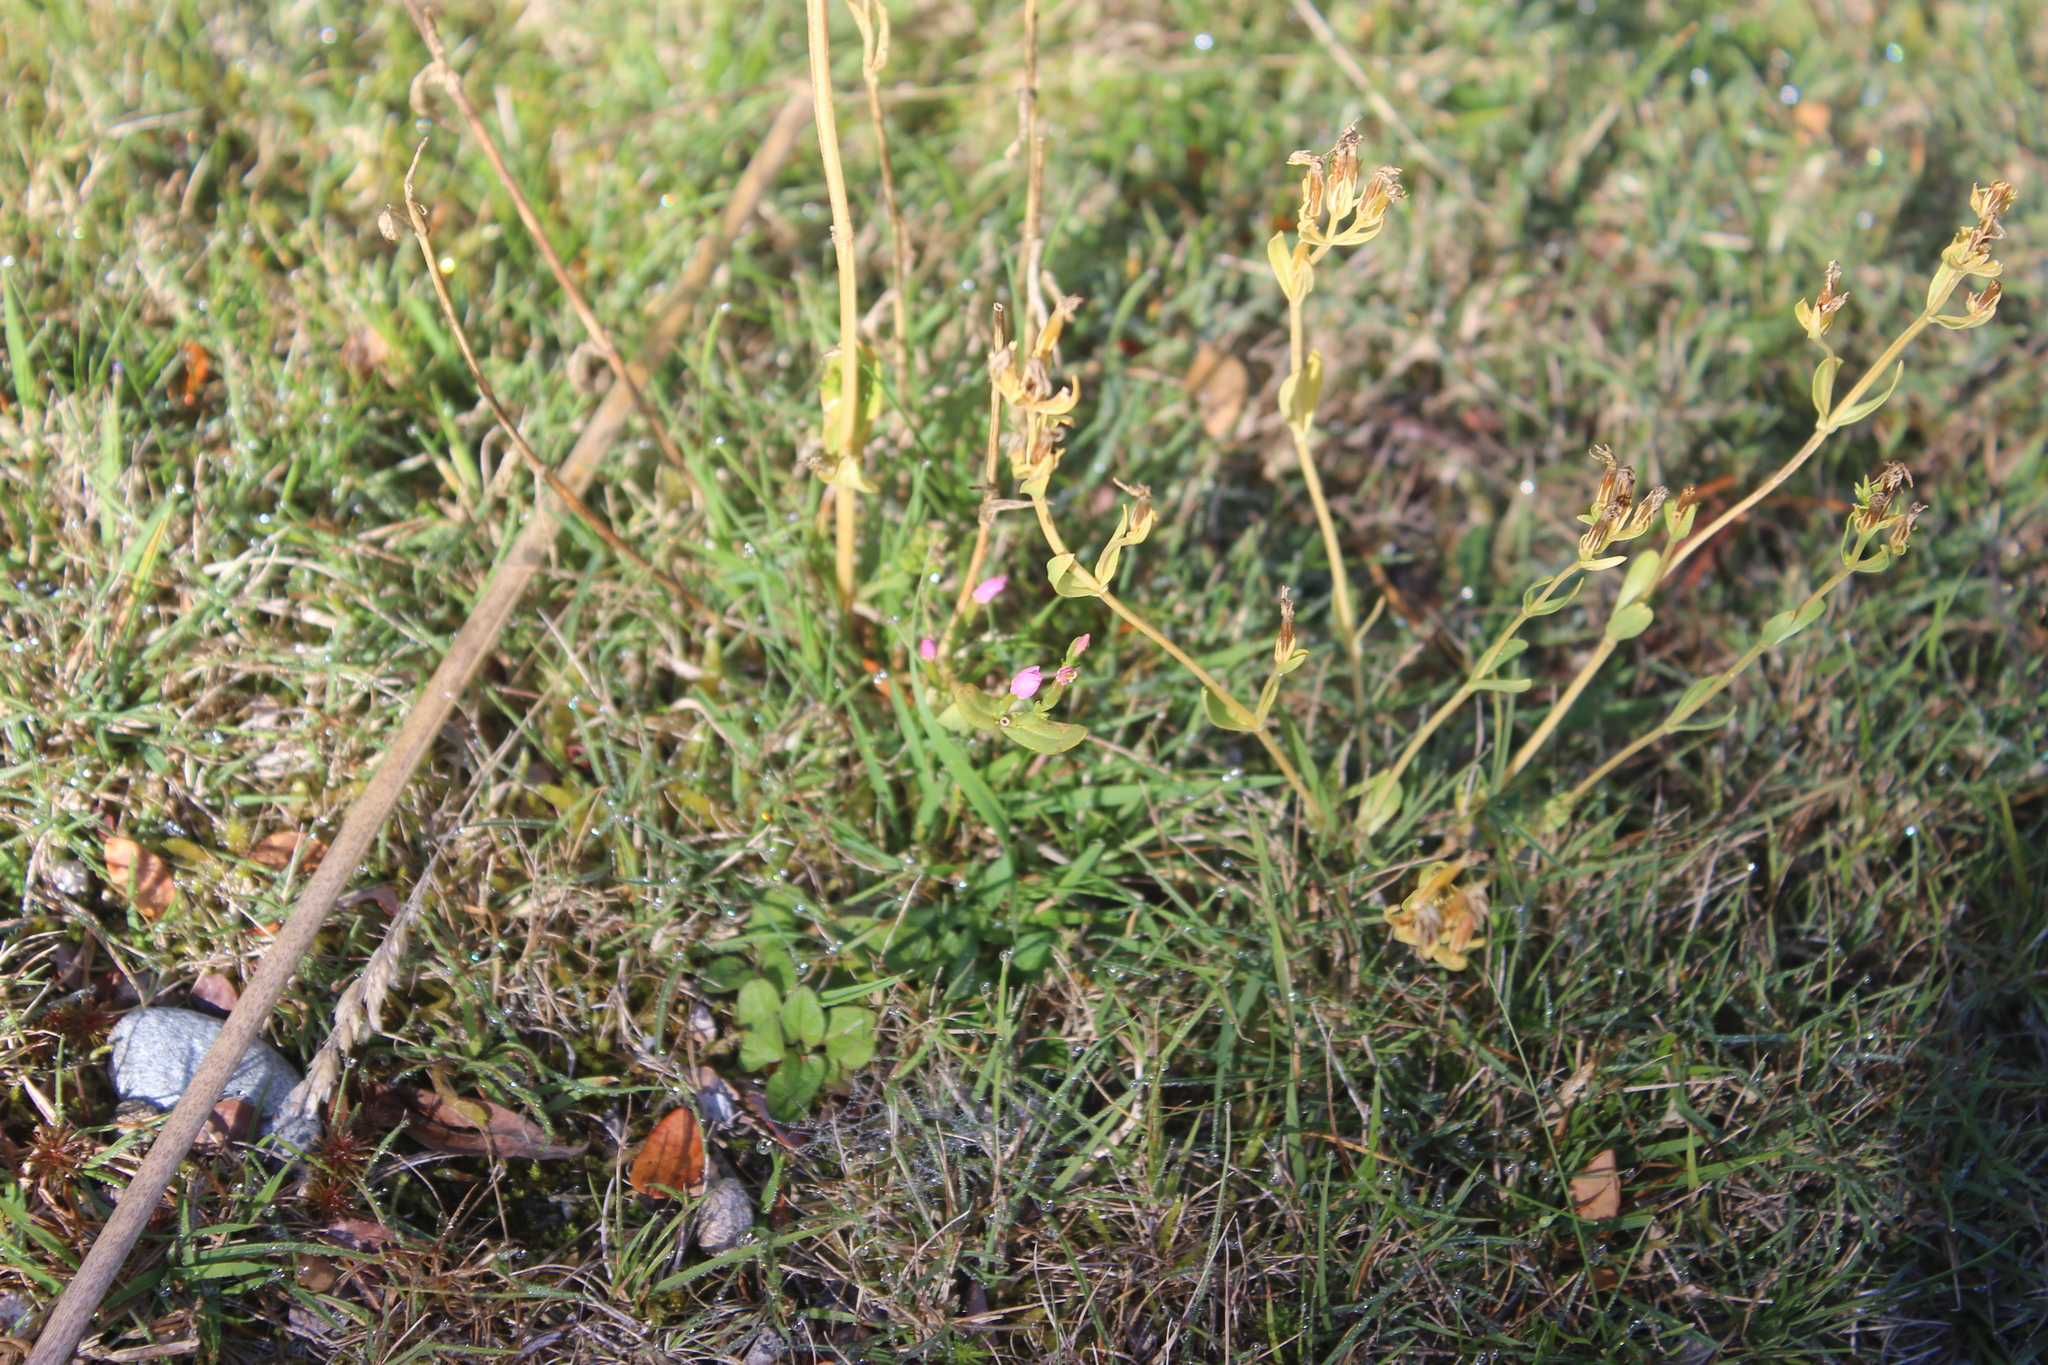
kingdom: Plantae
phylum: Tracheophyta
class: Magnoliopsida
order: Gentianales
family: Gentianaceae
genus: Centaurium
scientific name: Centaurium erythraea
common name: Common centaury
